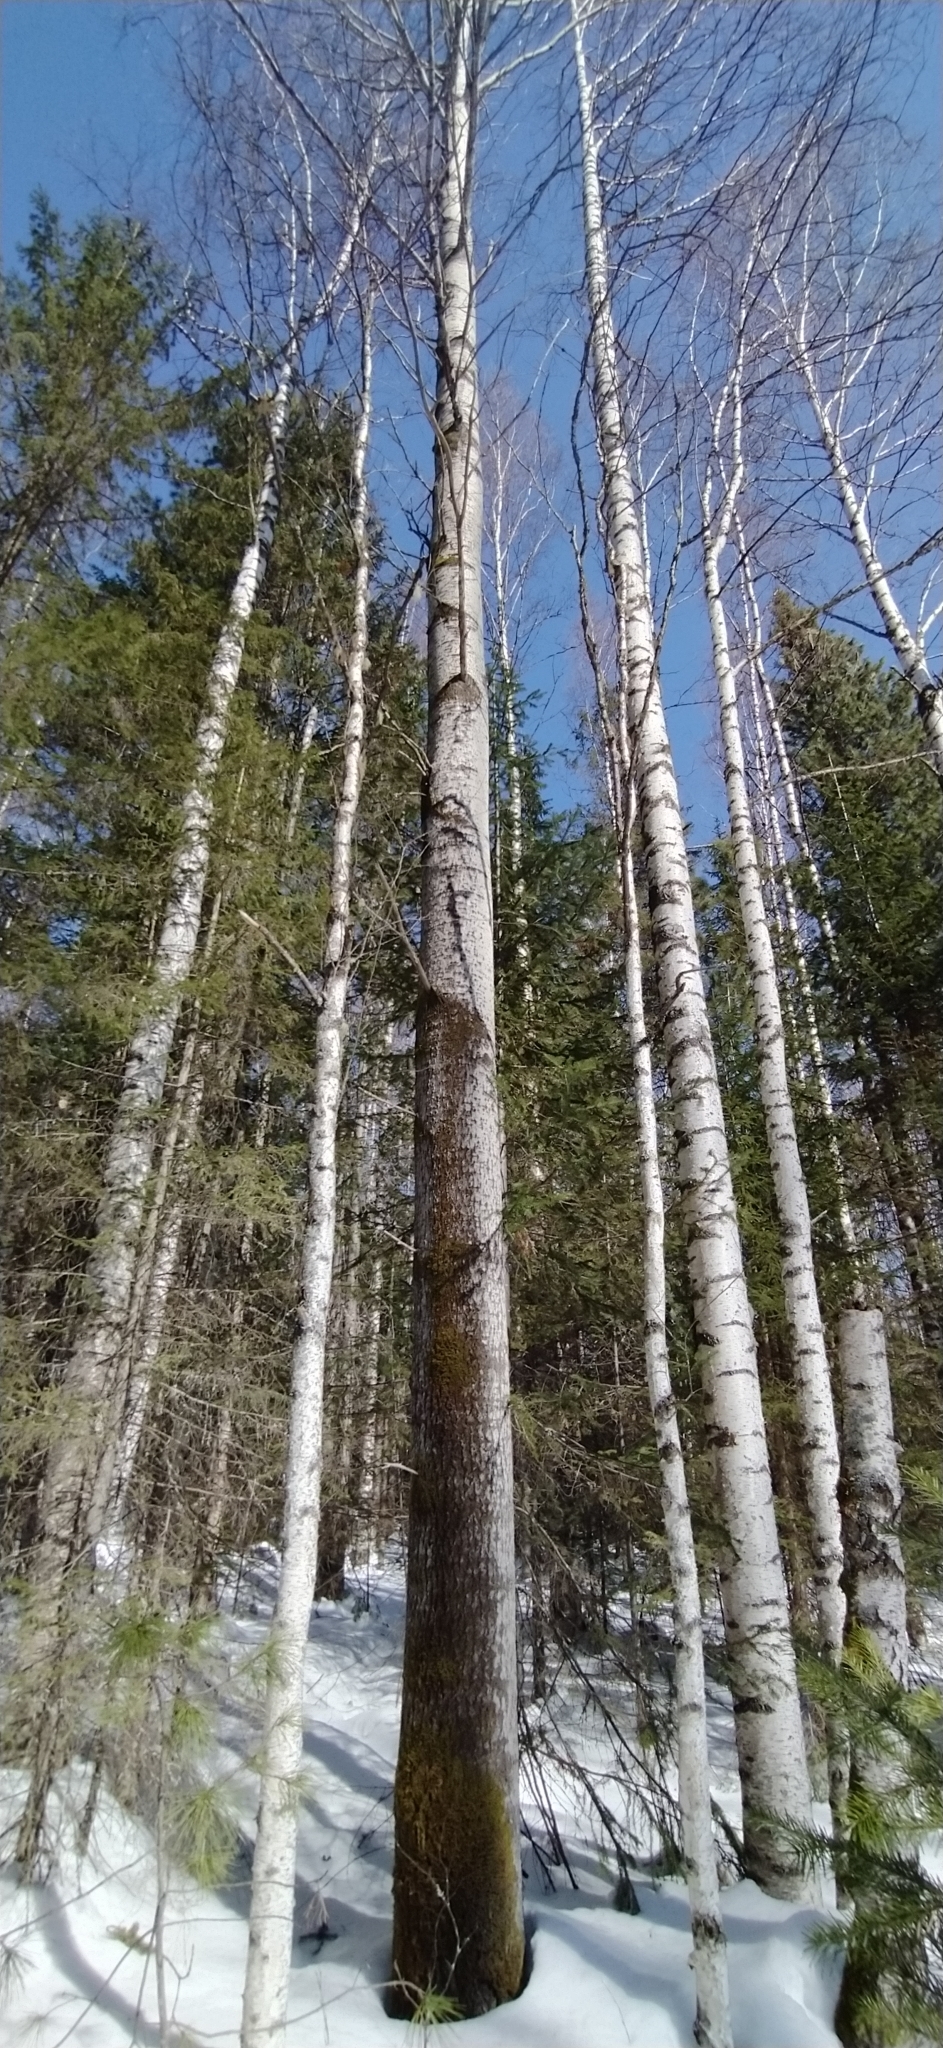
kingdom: Plantae
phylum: Tracheophyta
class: Magnoliopsida
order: Malpighiales
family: Salicaceae
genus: Populus
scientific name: Populus tremula
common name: European aspen
